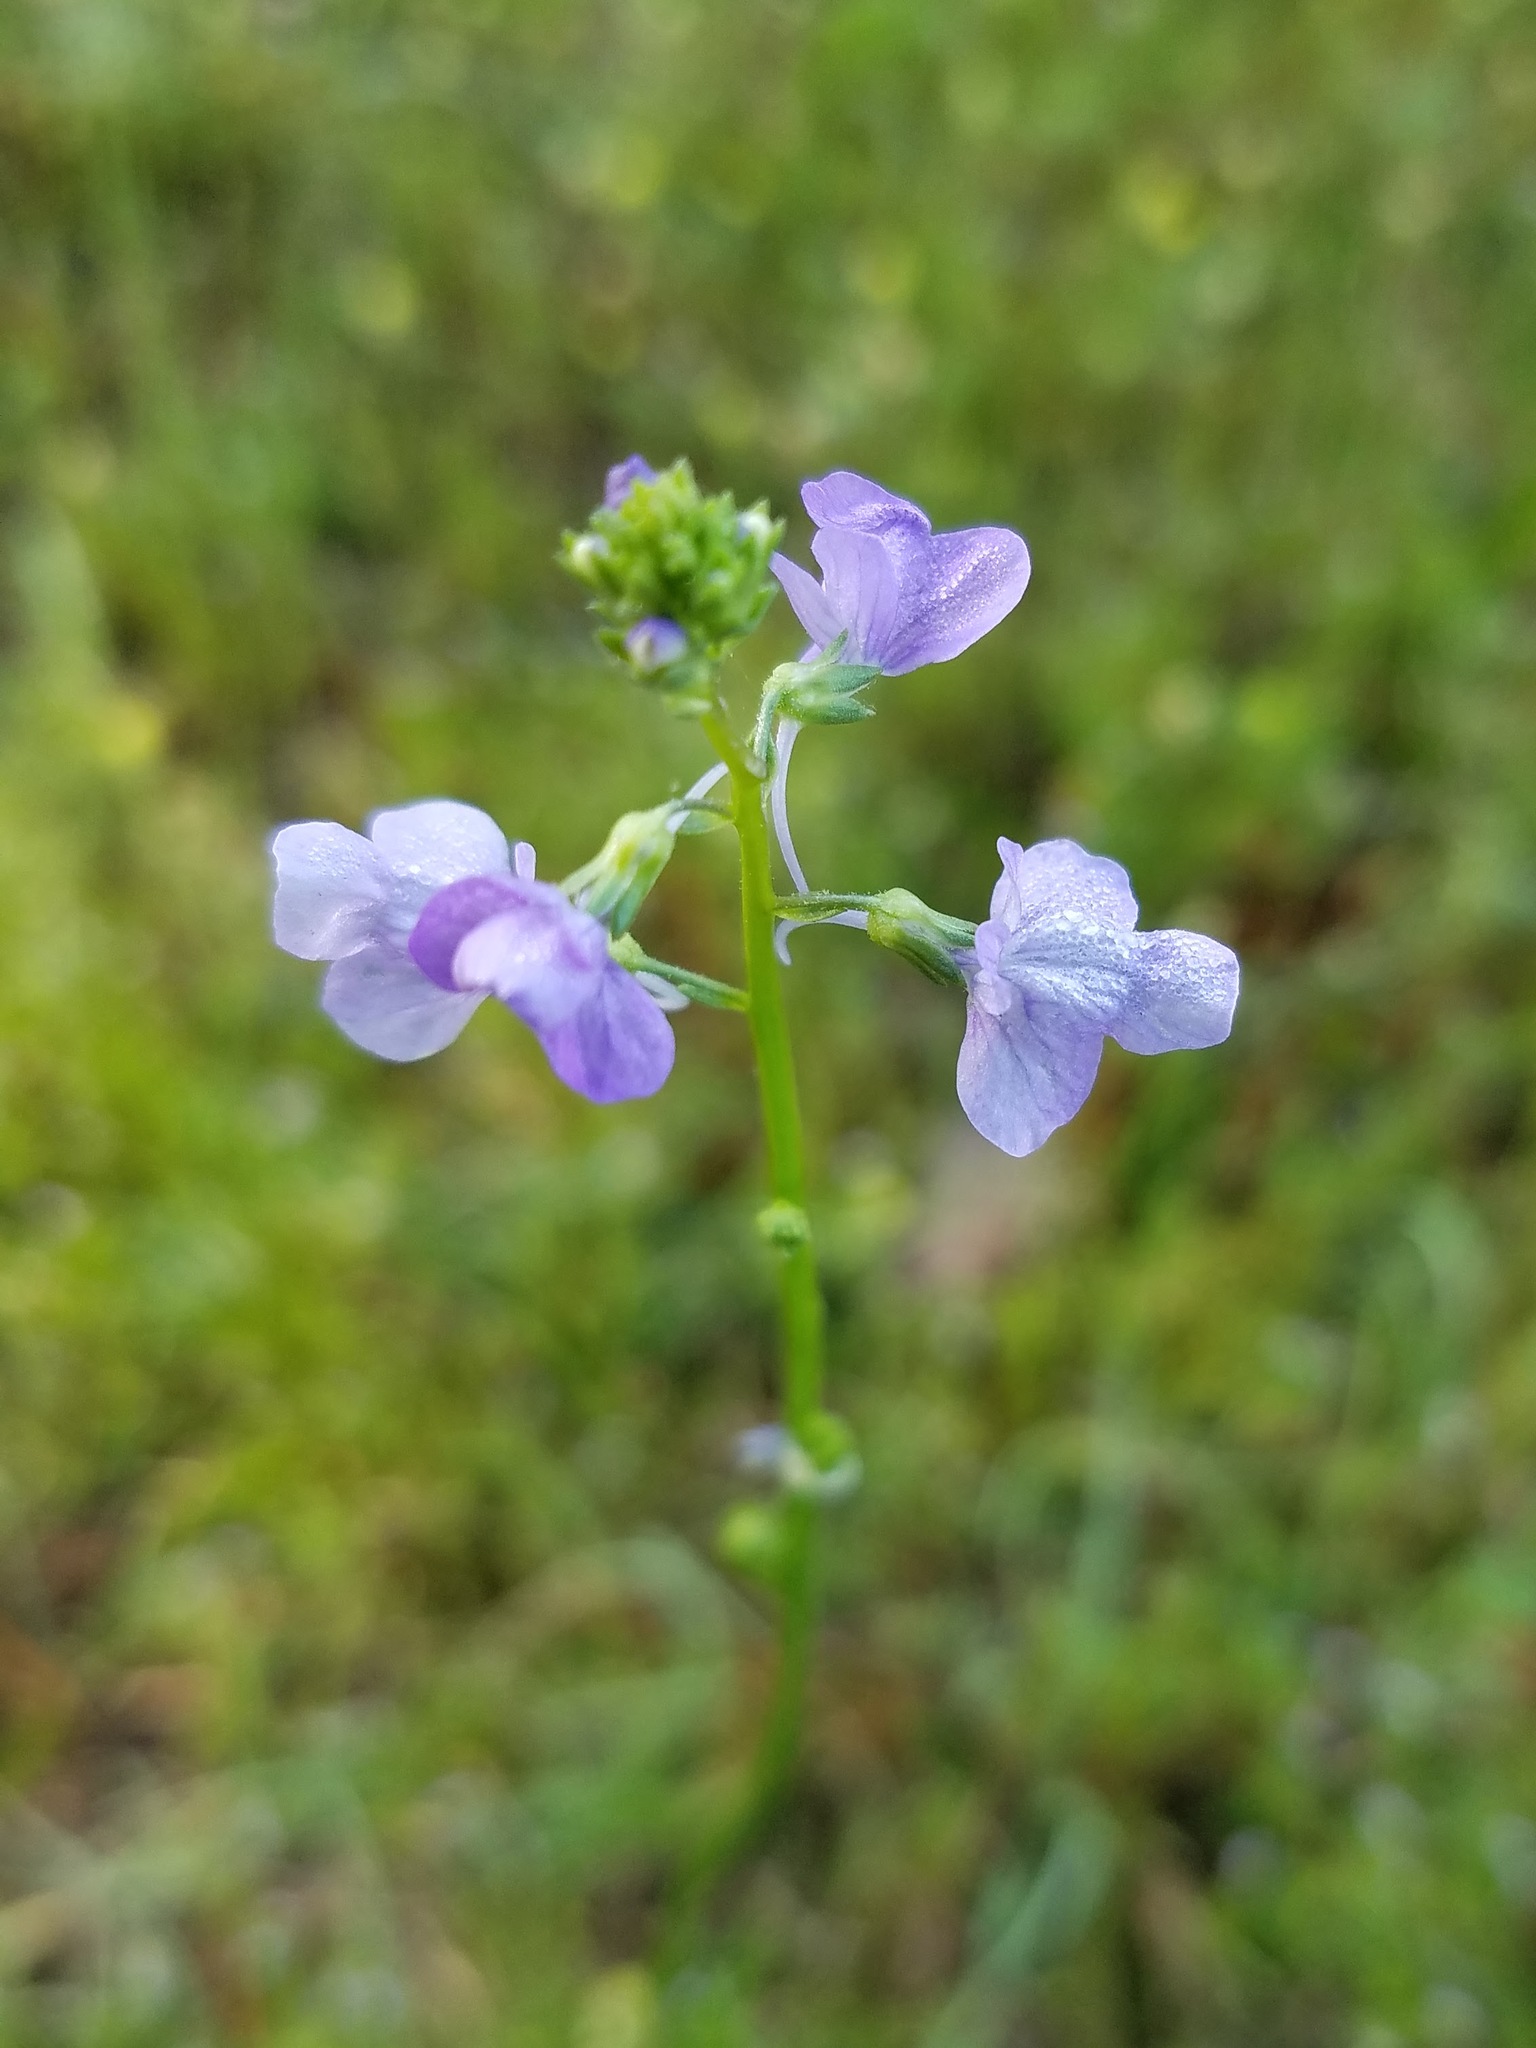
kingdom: Plantae
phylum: Tracheophyta
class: Magnoliopsida
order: Lamiales
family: Plantaginaceae
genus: Nuttallanthus
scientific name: Nuttallanthus texanus
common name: Texas toadflax
